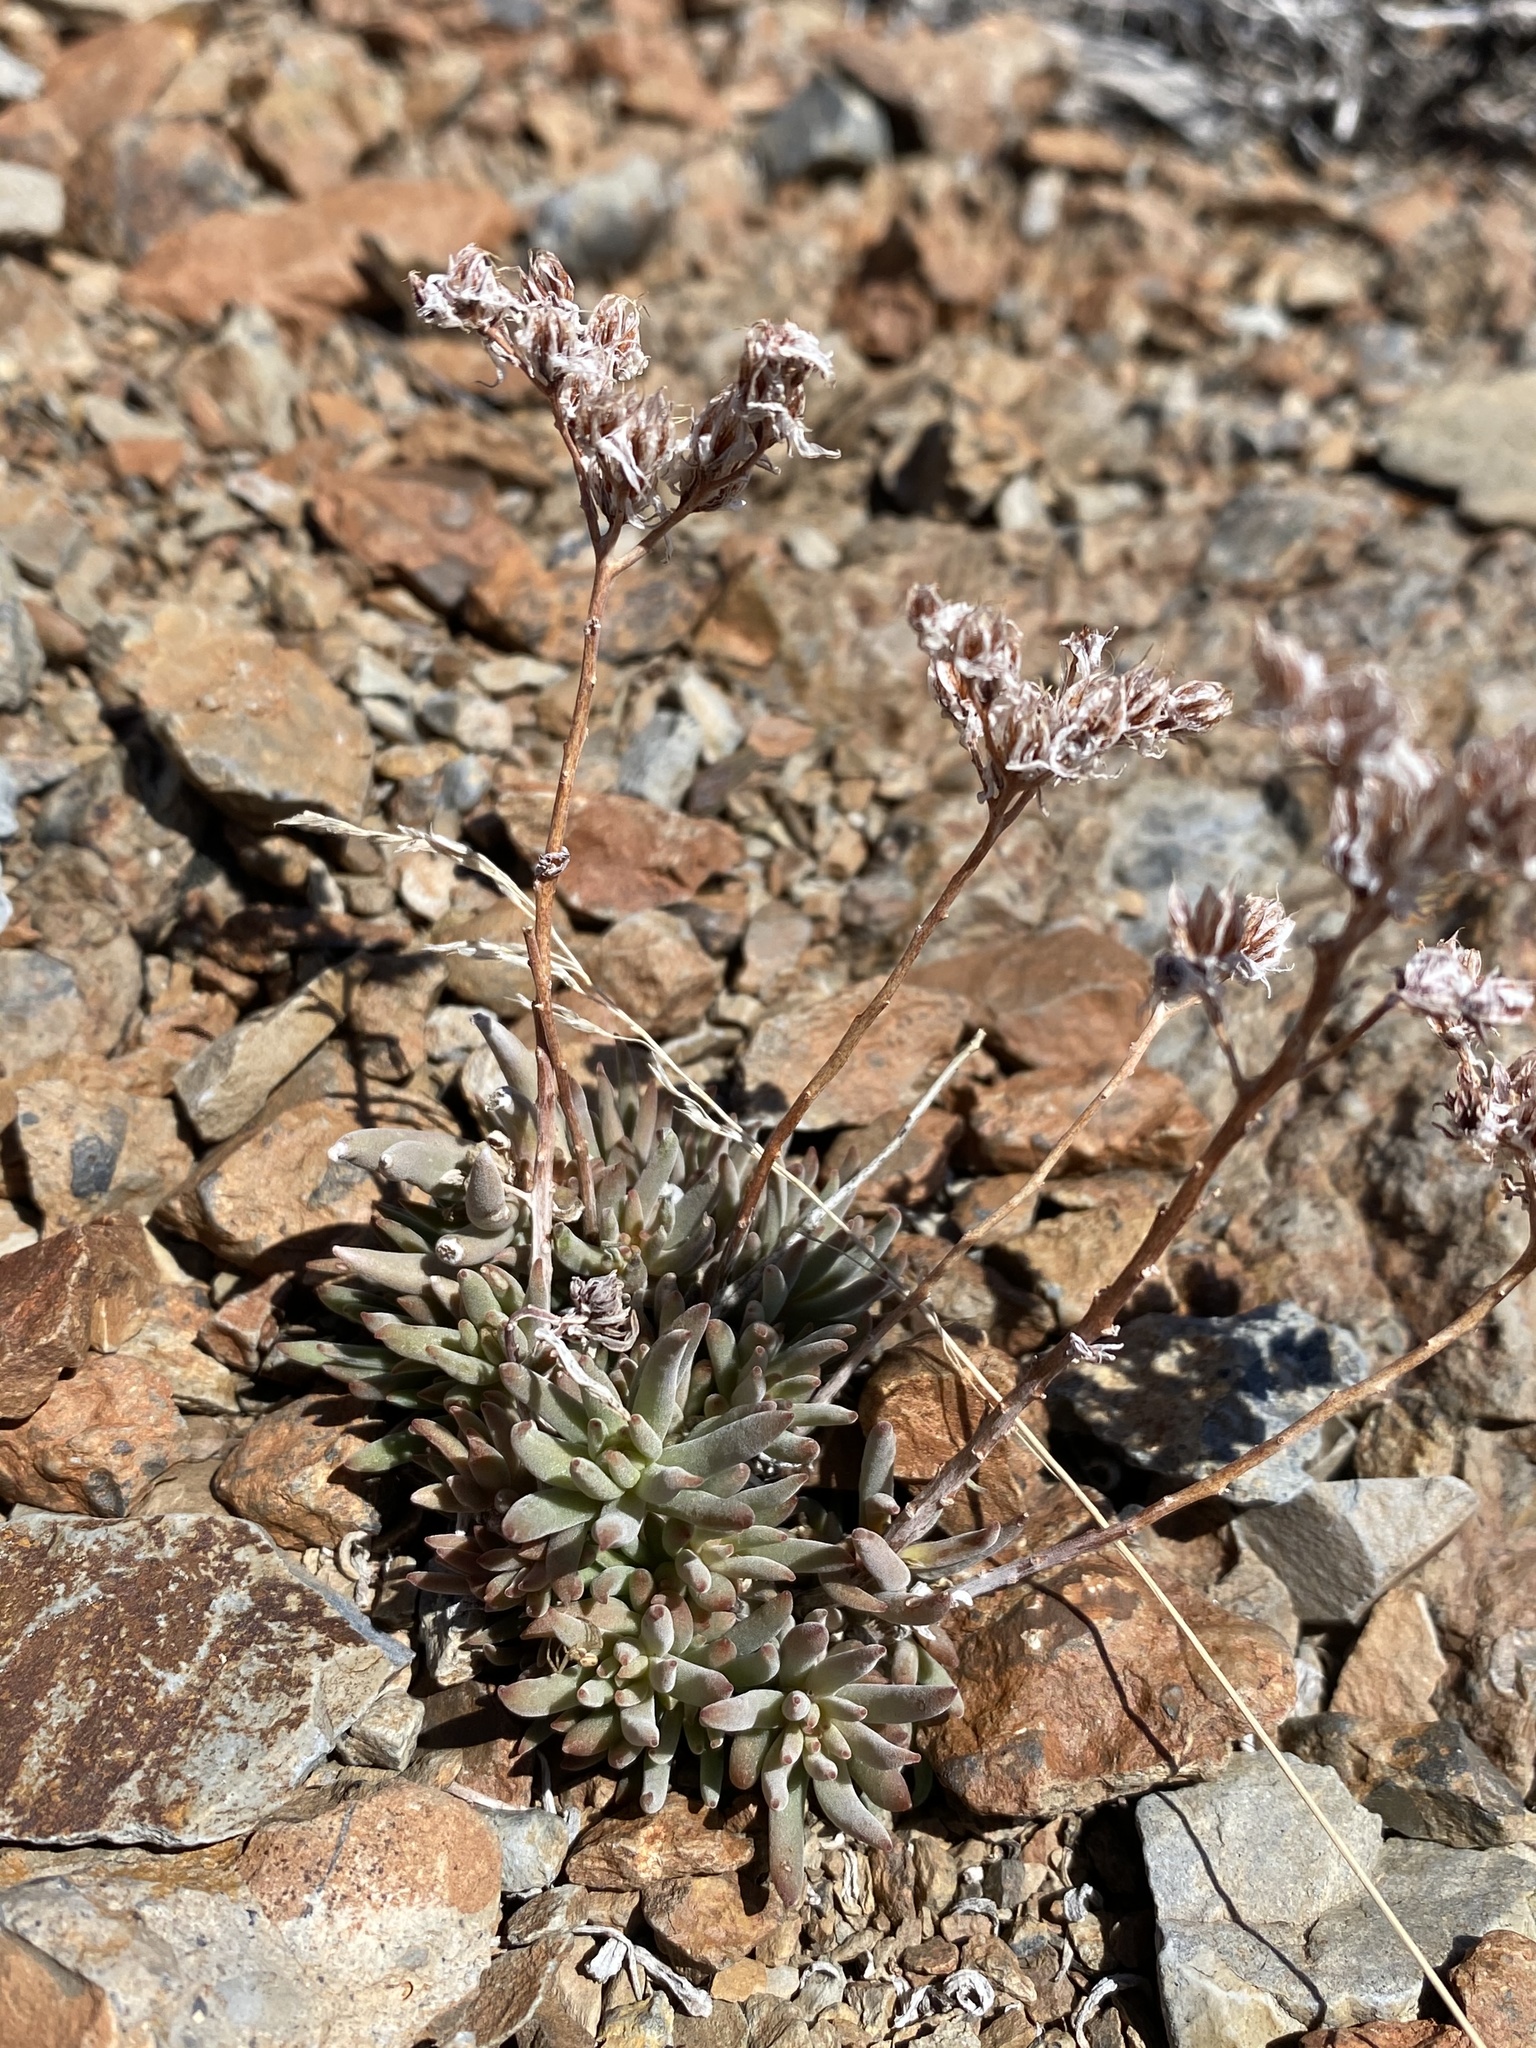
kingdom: Plantae
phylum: Tracheophyta
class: Magnoliopsida
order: Saxifragales
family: Crassulaceae
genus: Sedum
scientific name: Sedum lanceolatum
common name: Common stonecrop
